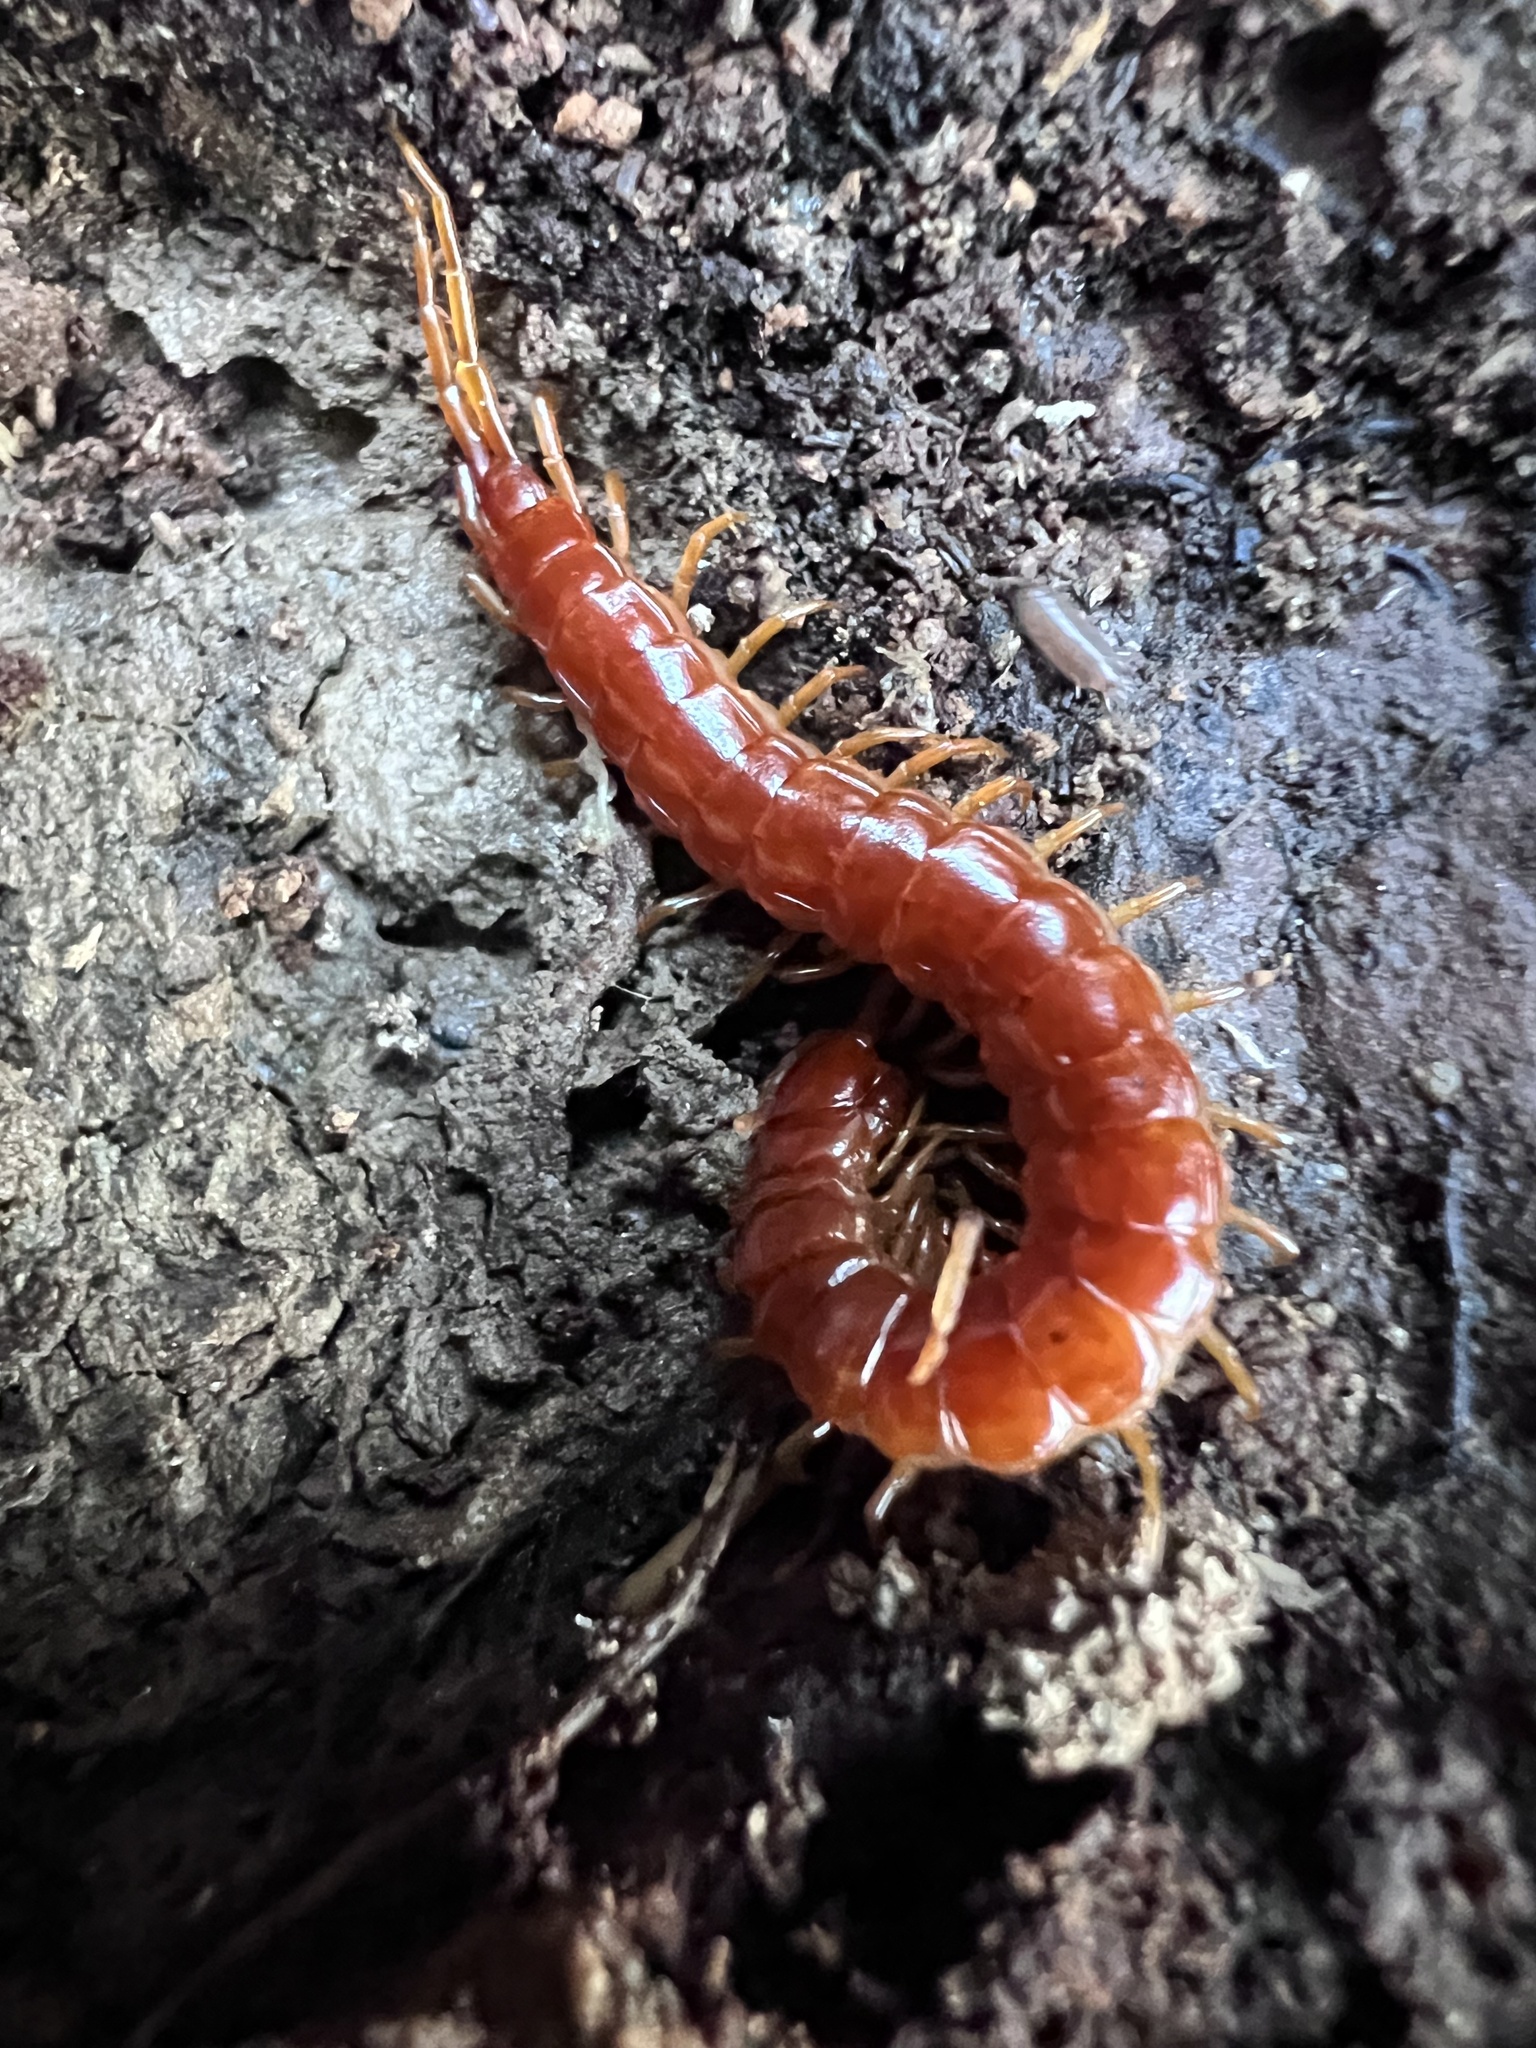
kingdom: Animalia
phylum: Arthropoda
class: Chilopoda
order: Scolopendromorpha
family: Scolopocryptopidae
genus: Scolopocryptops
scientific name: Scolopocryptops sexspinosus
